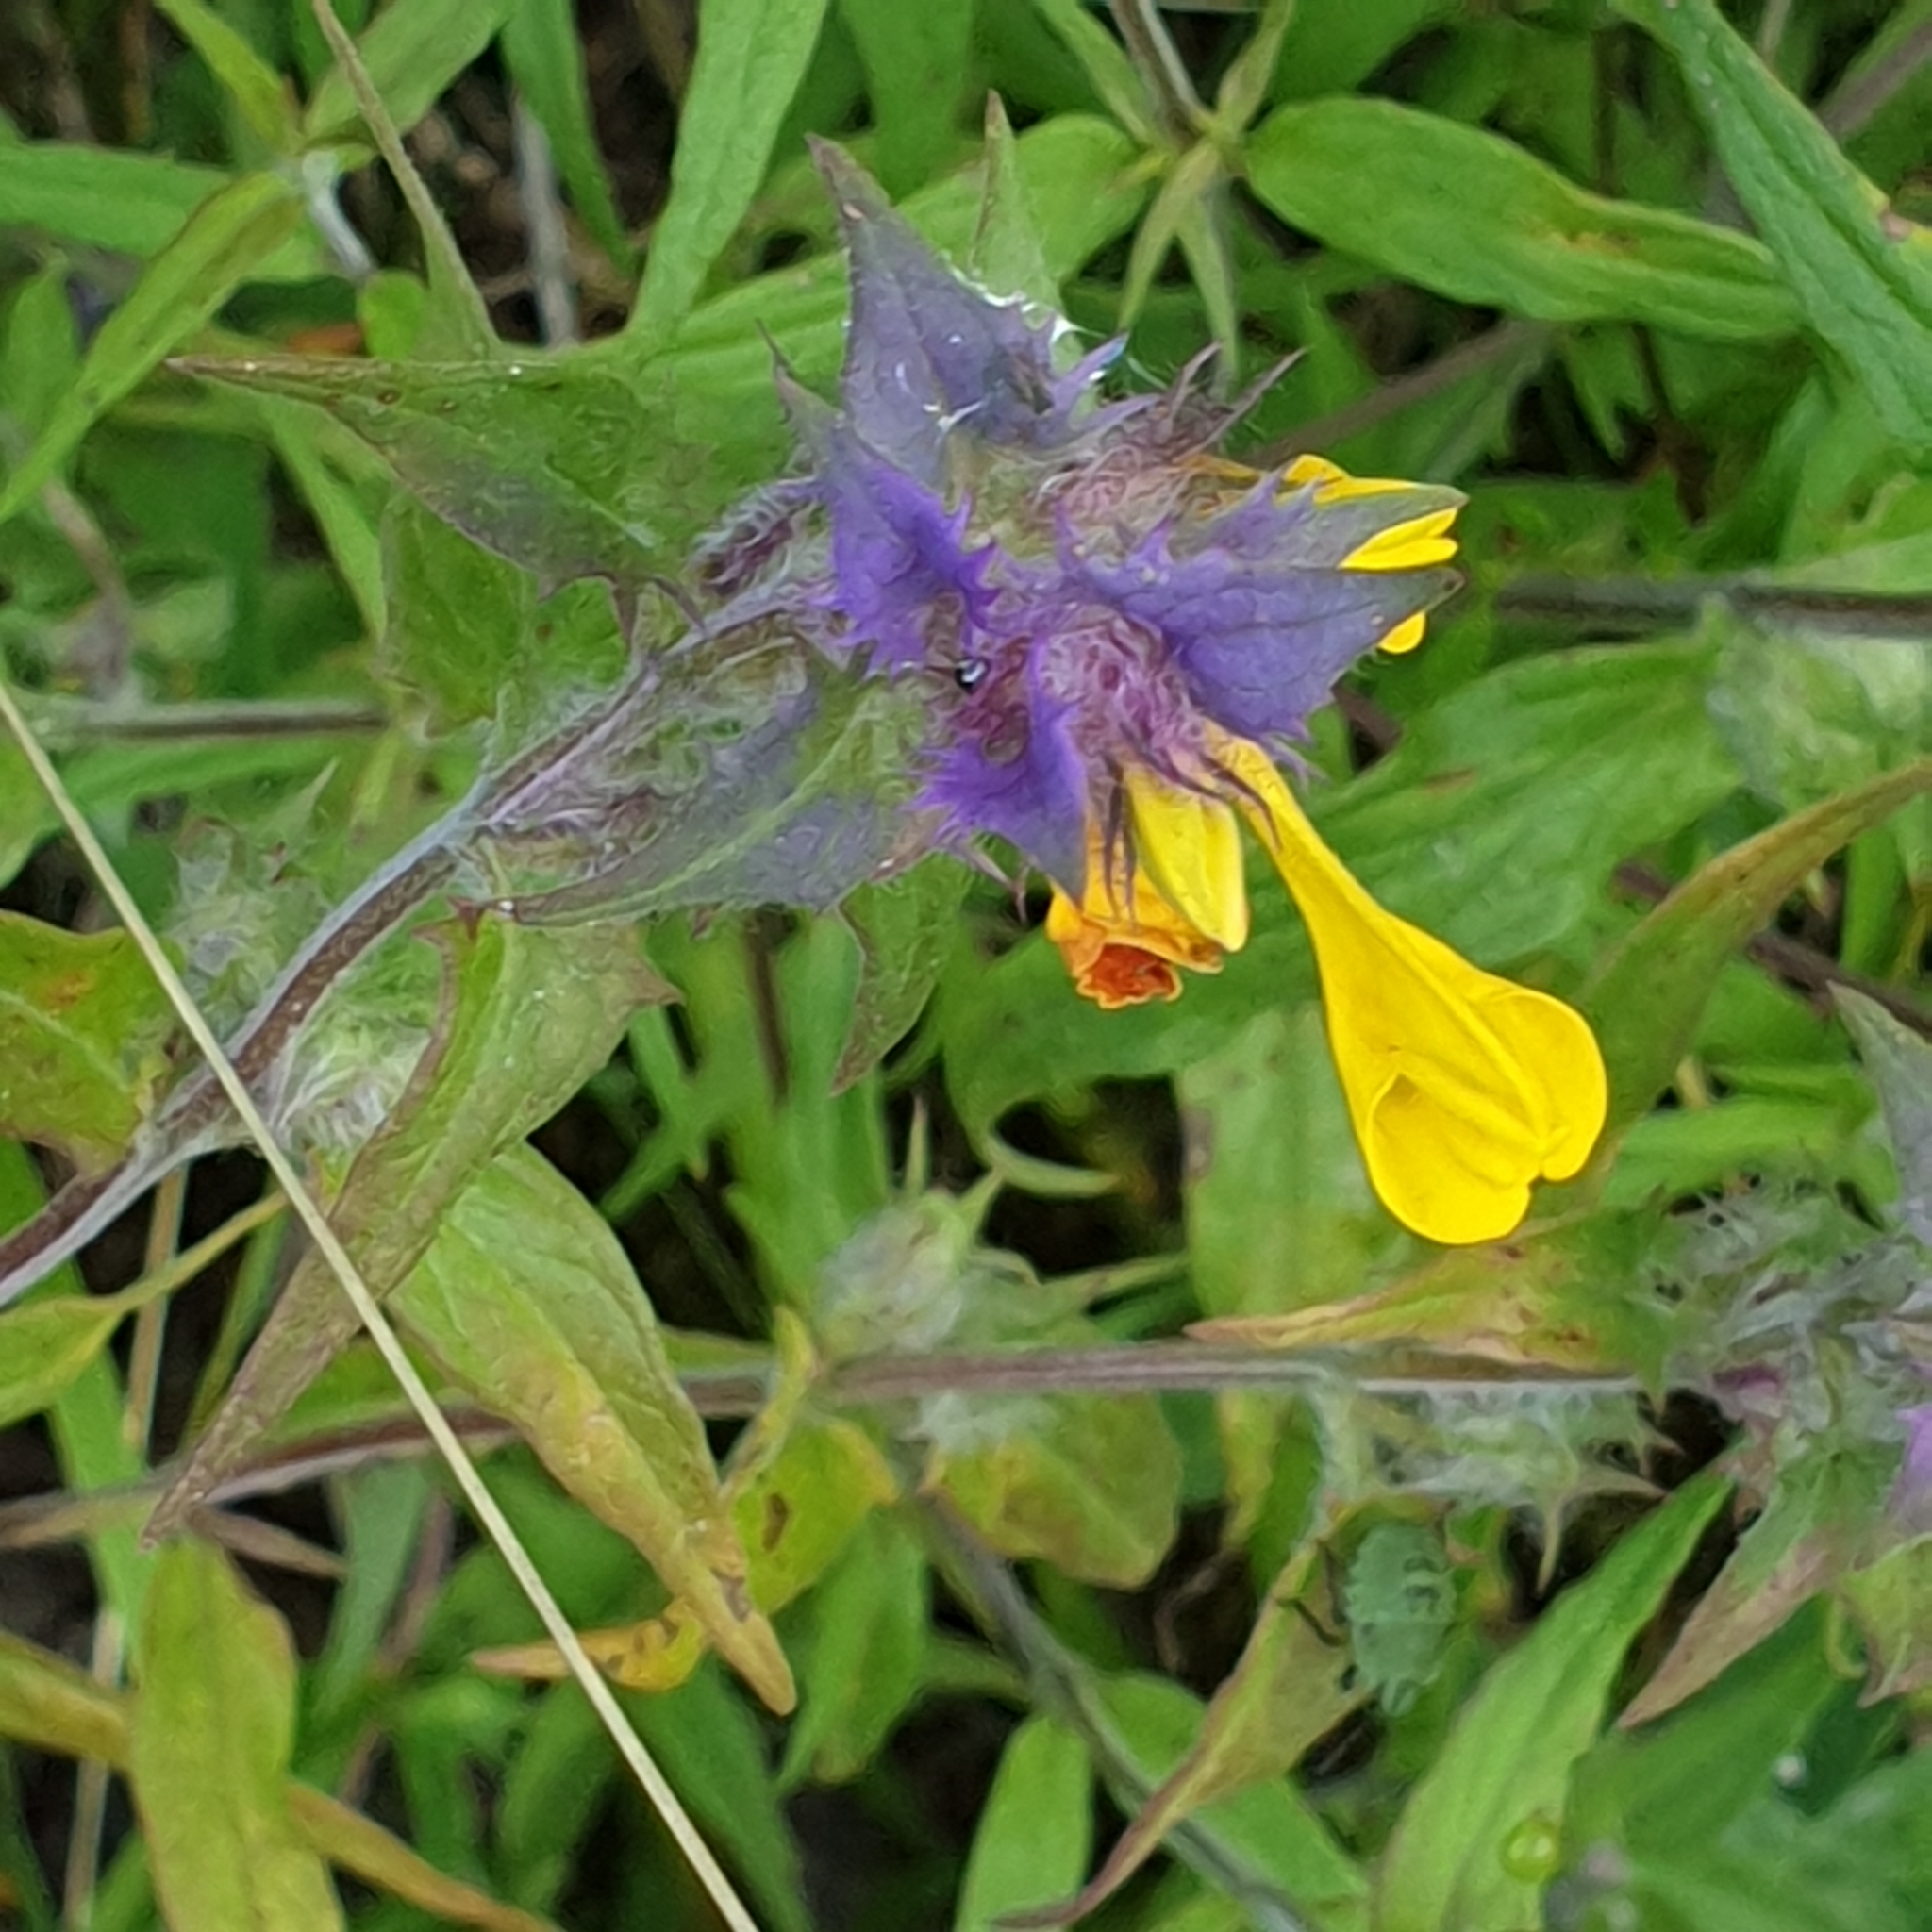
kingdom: Plantae
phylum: Tracheophyta
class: Magnoliopsida
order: Lamiales
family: Orobanchaceae
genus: Melampyrum
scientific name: Melampyrum nemorosum
